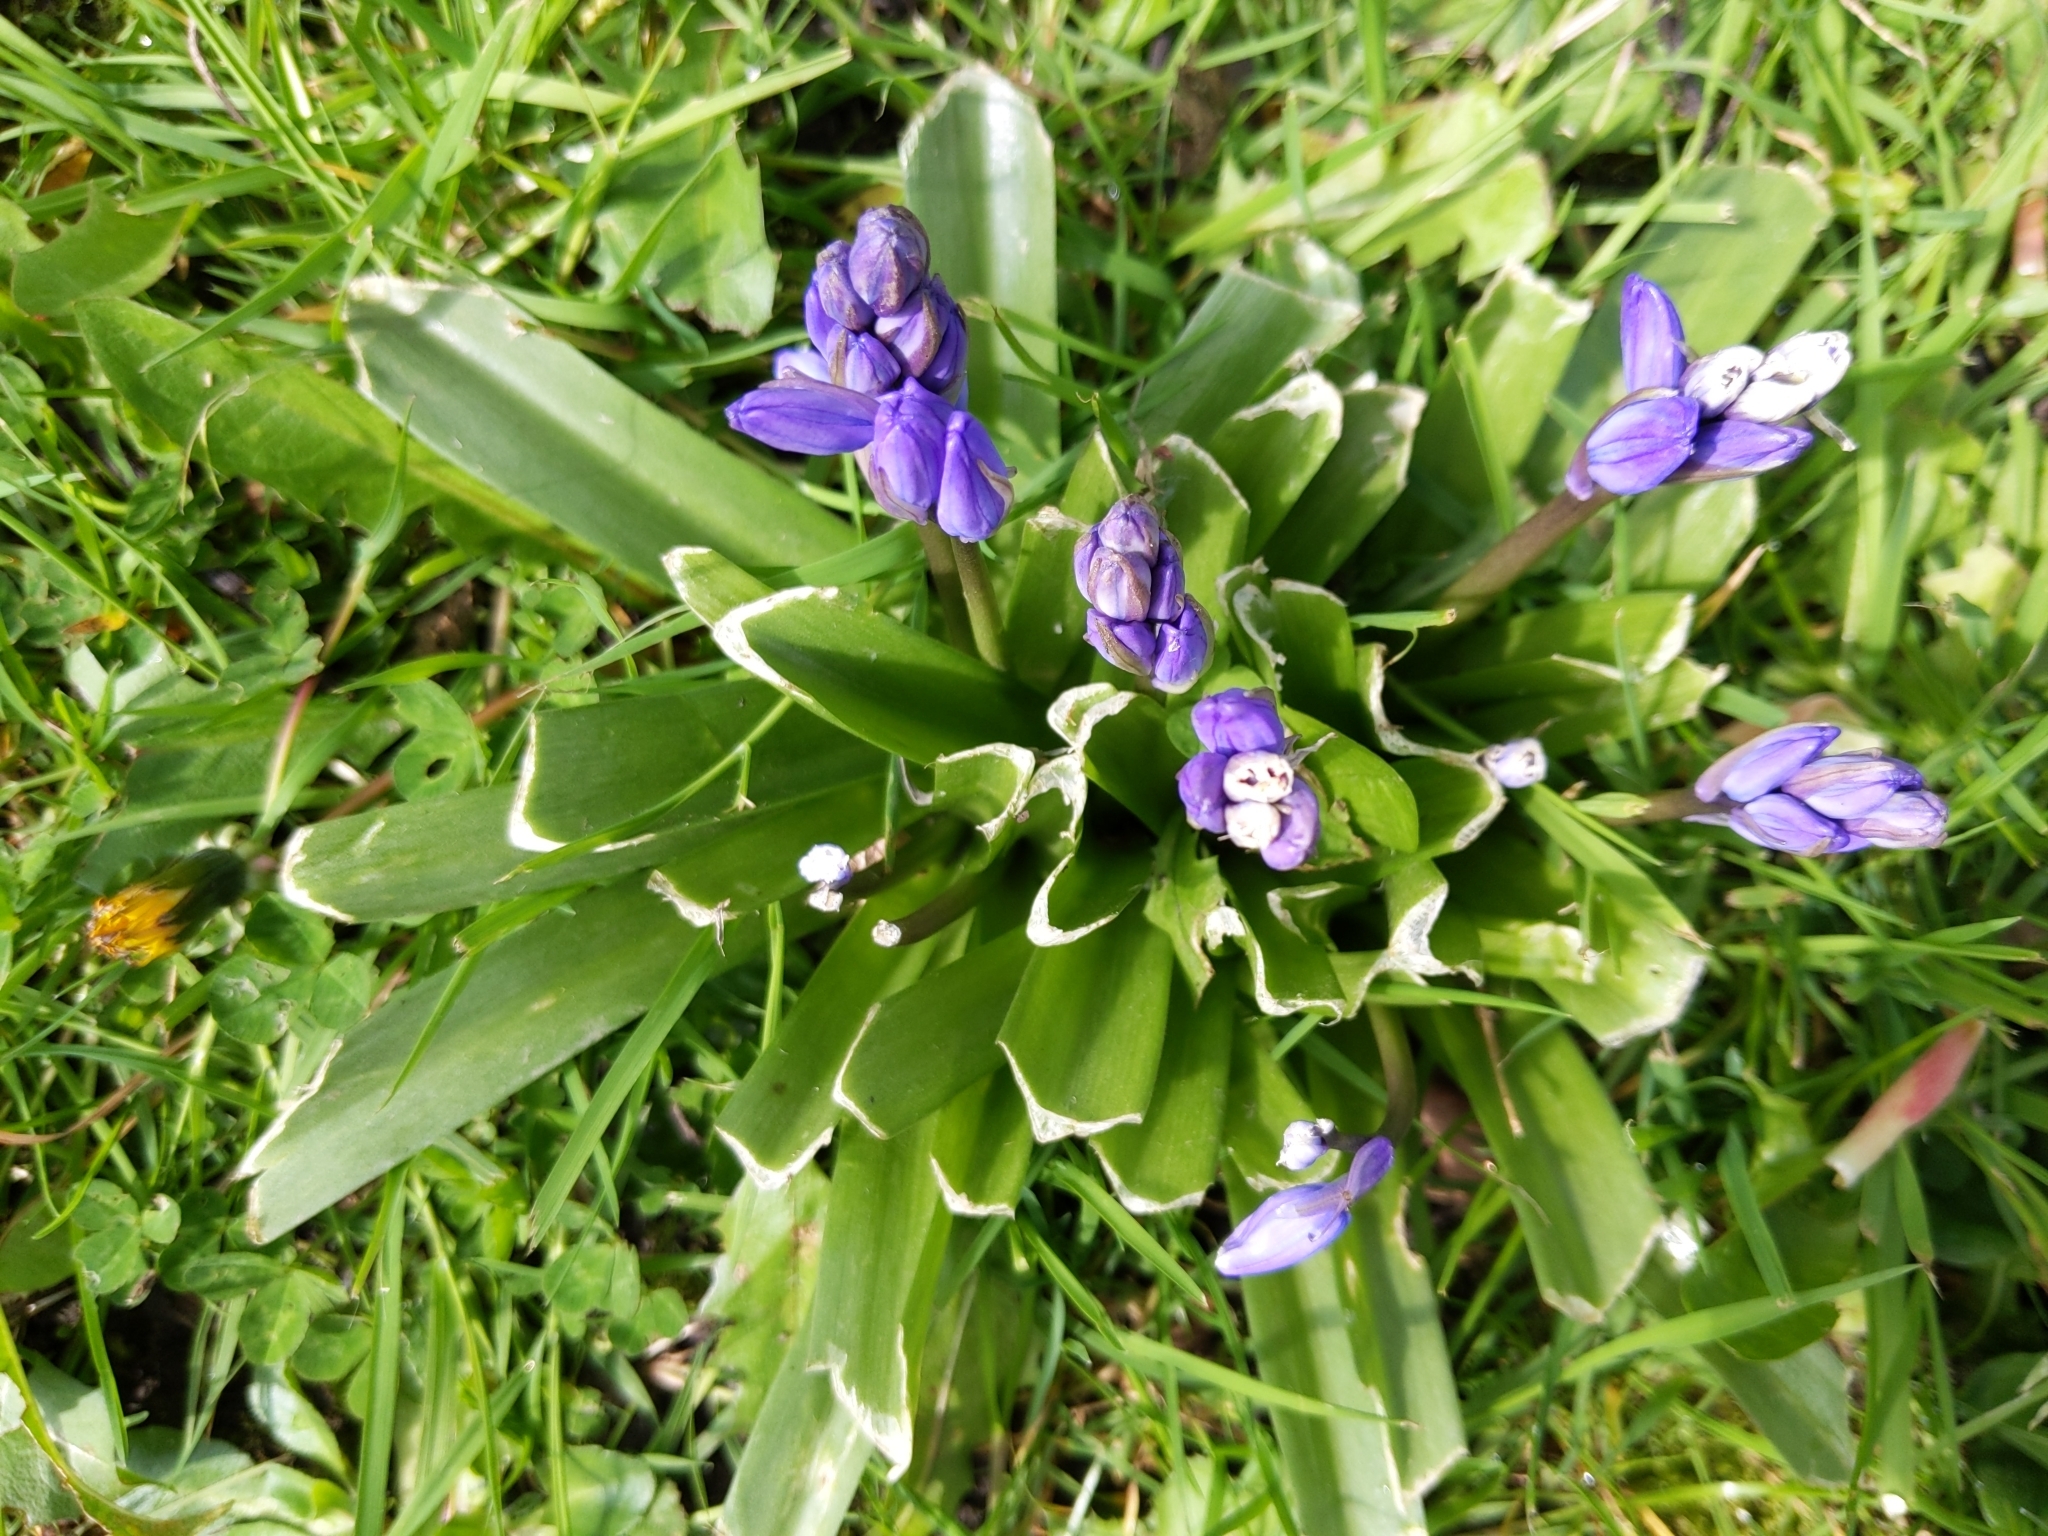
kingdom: Plantae
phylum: Tracheophyta
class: Liliopsida
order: Asparagales
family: Asparagaceae
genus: Hyacinthoides
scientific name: Hyacinthoides hispanica
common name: Spanish bluebell
